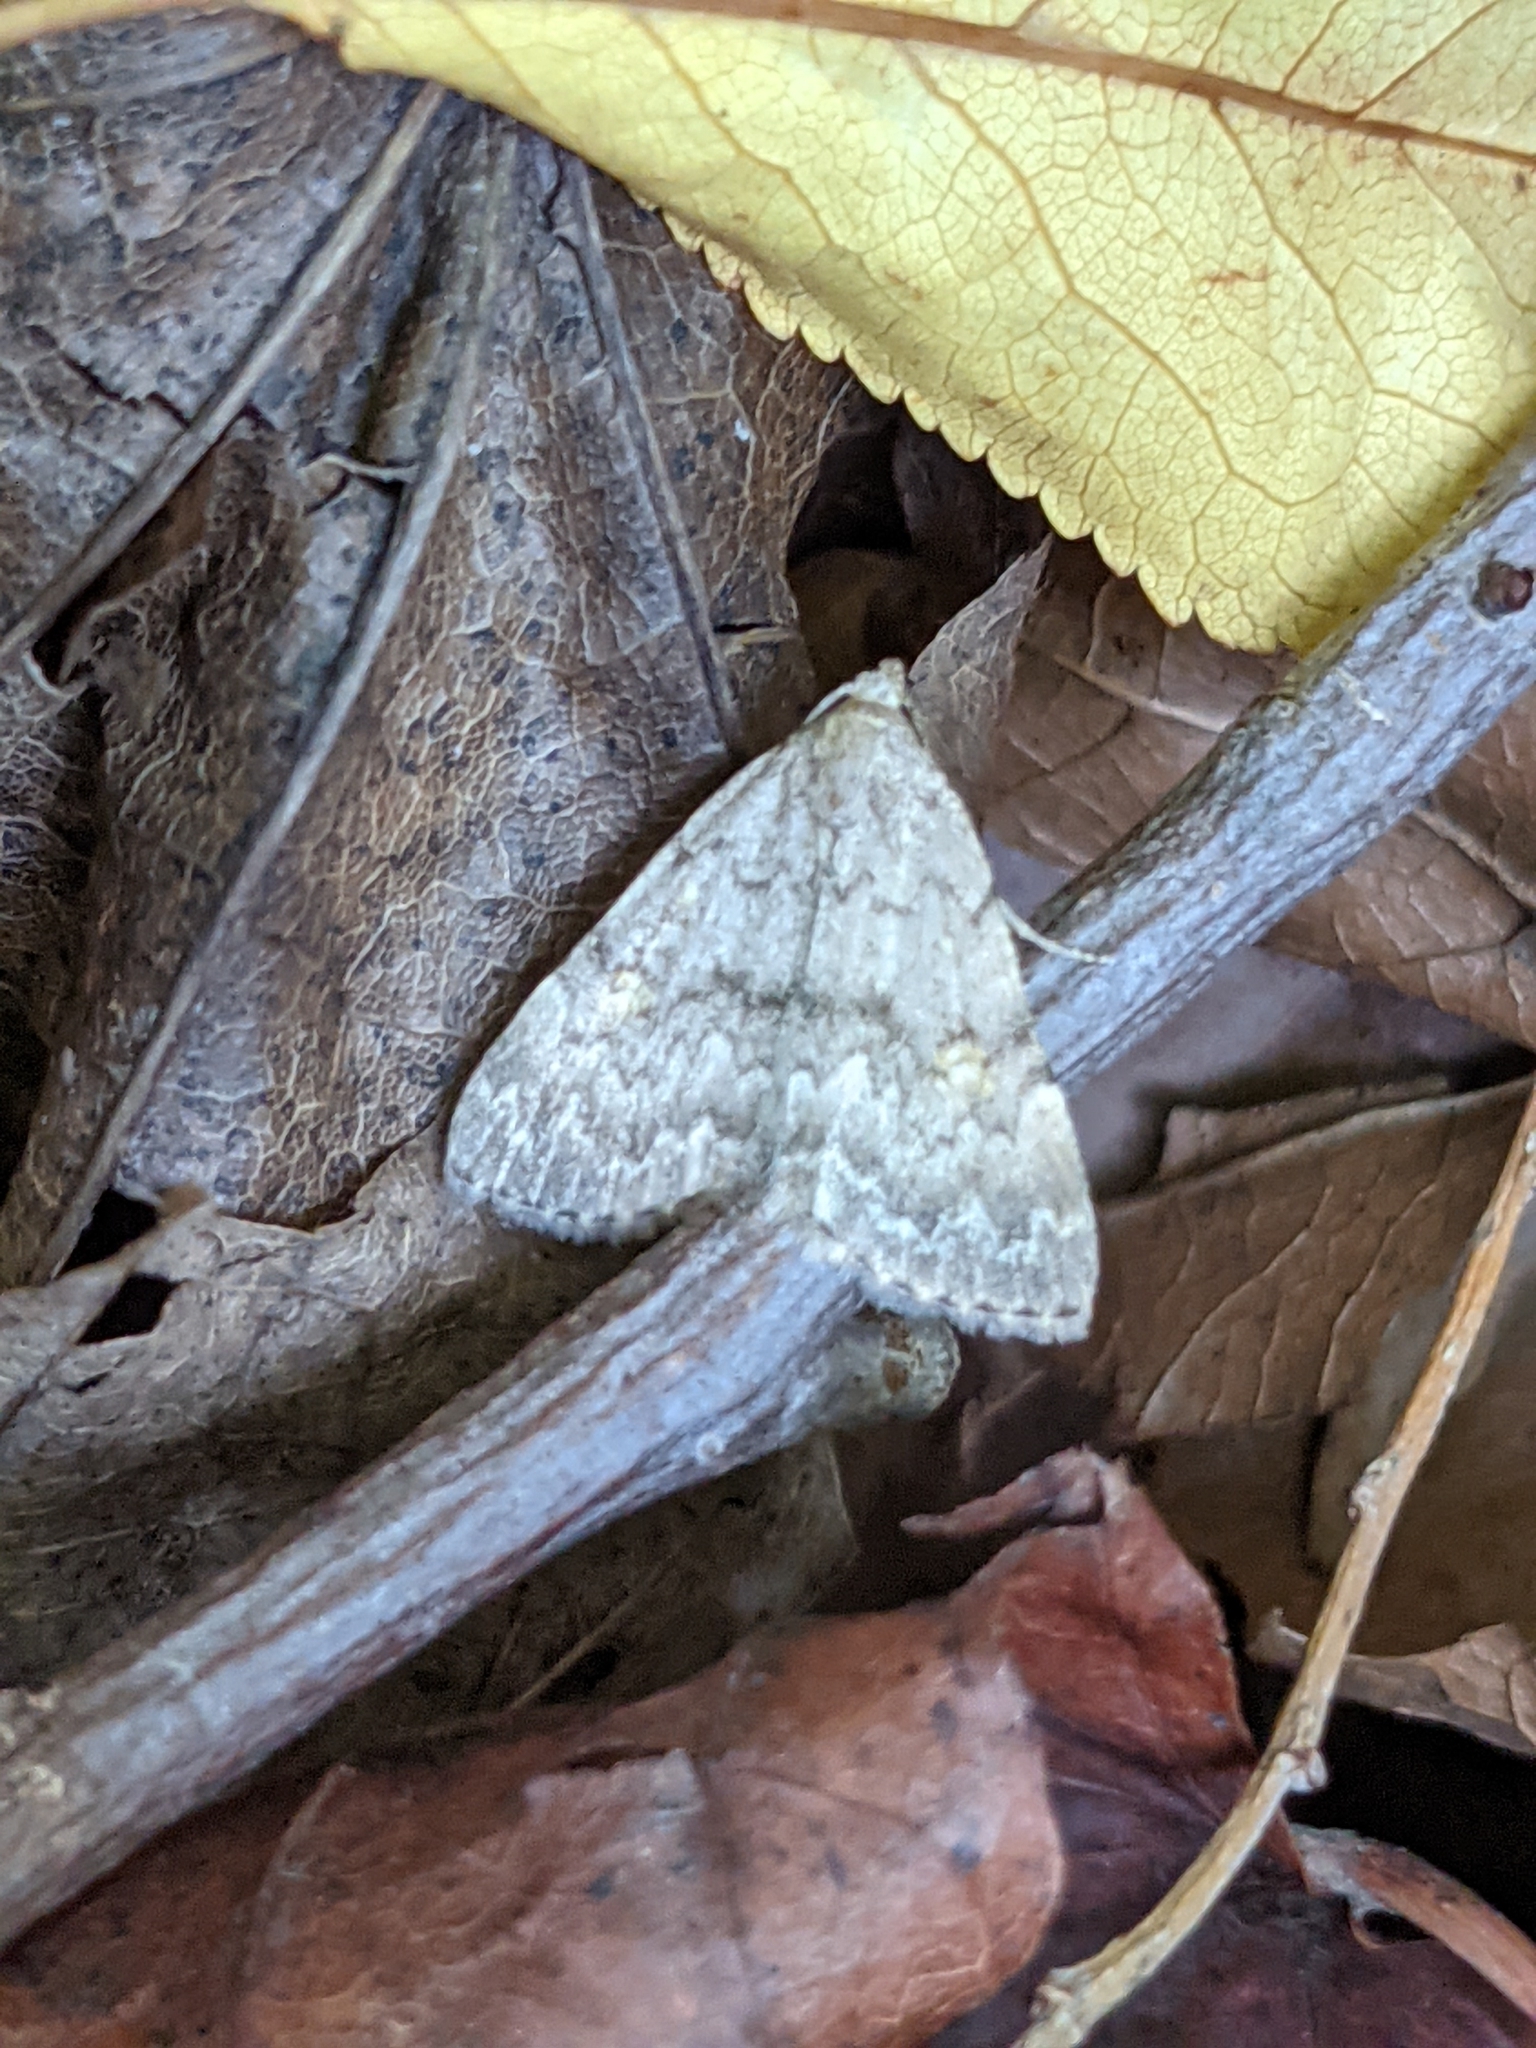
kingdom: Animalia
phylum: Arthropoda
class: Insecta
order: Lepidoptera
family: Erebidae
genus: Idia
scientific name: Idia aemula
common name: Common idia moth
